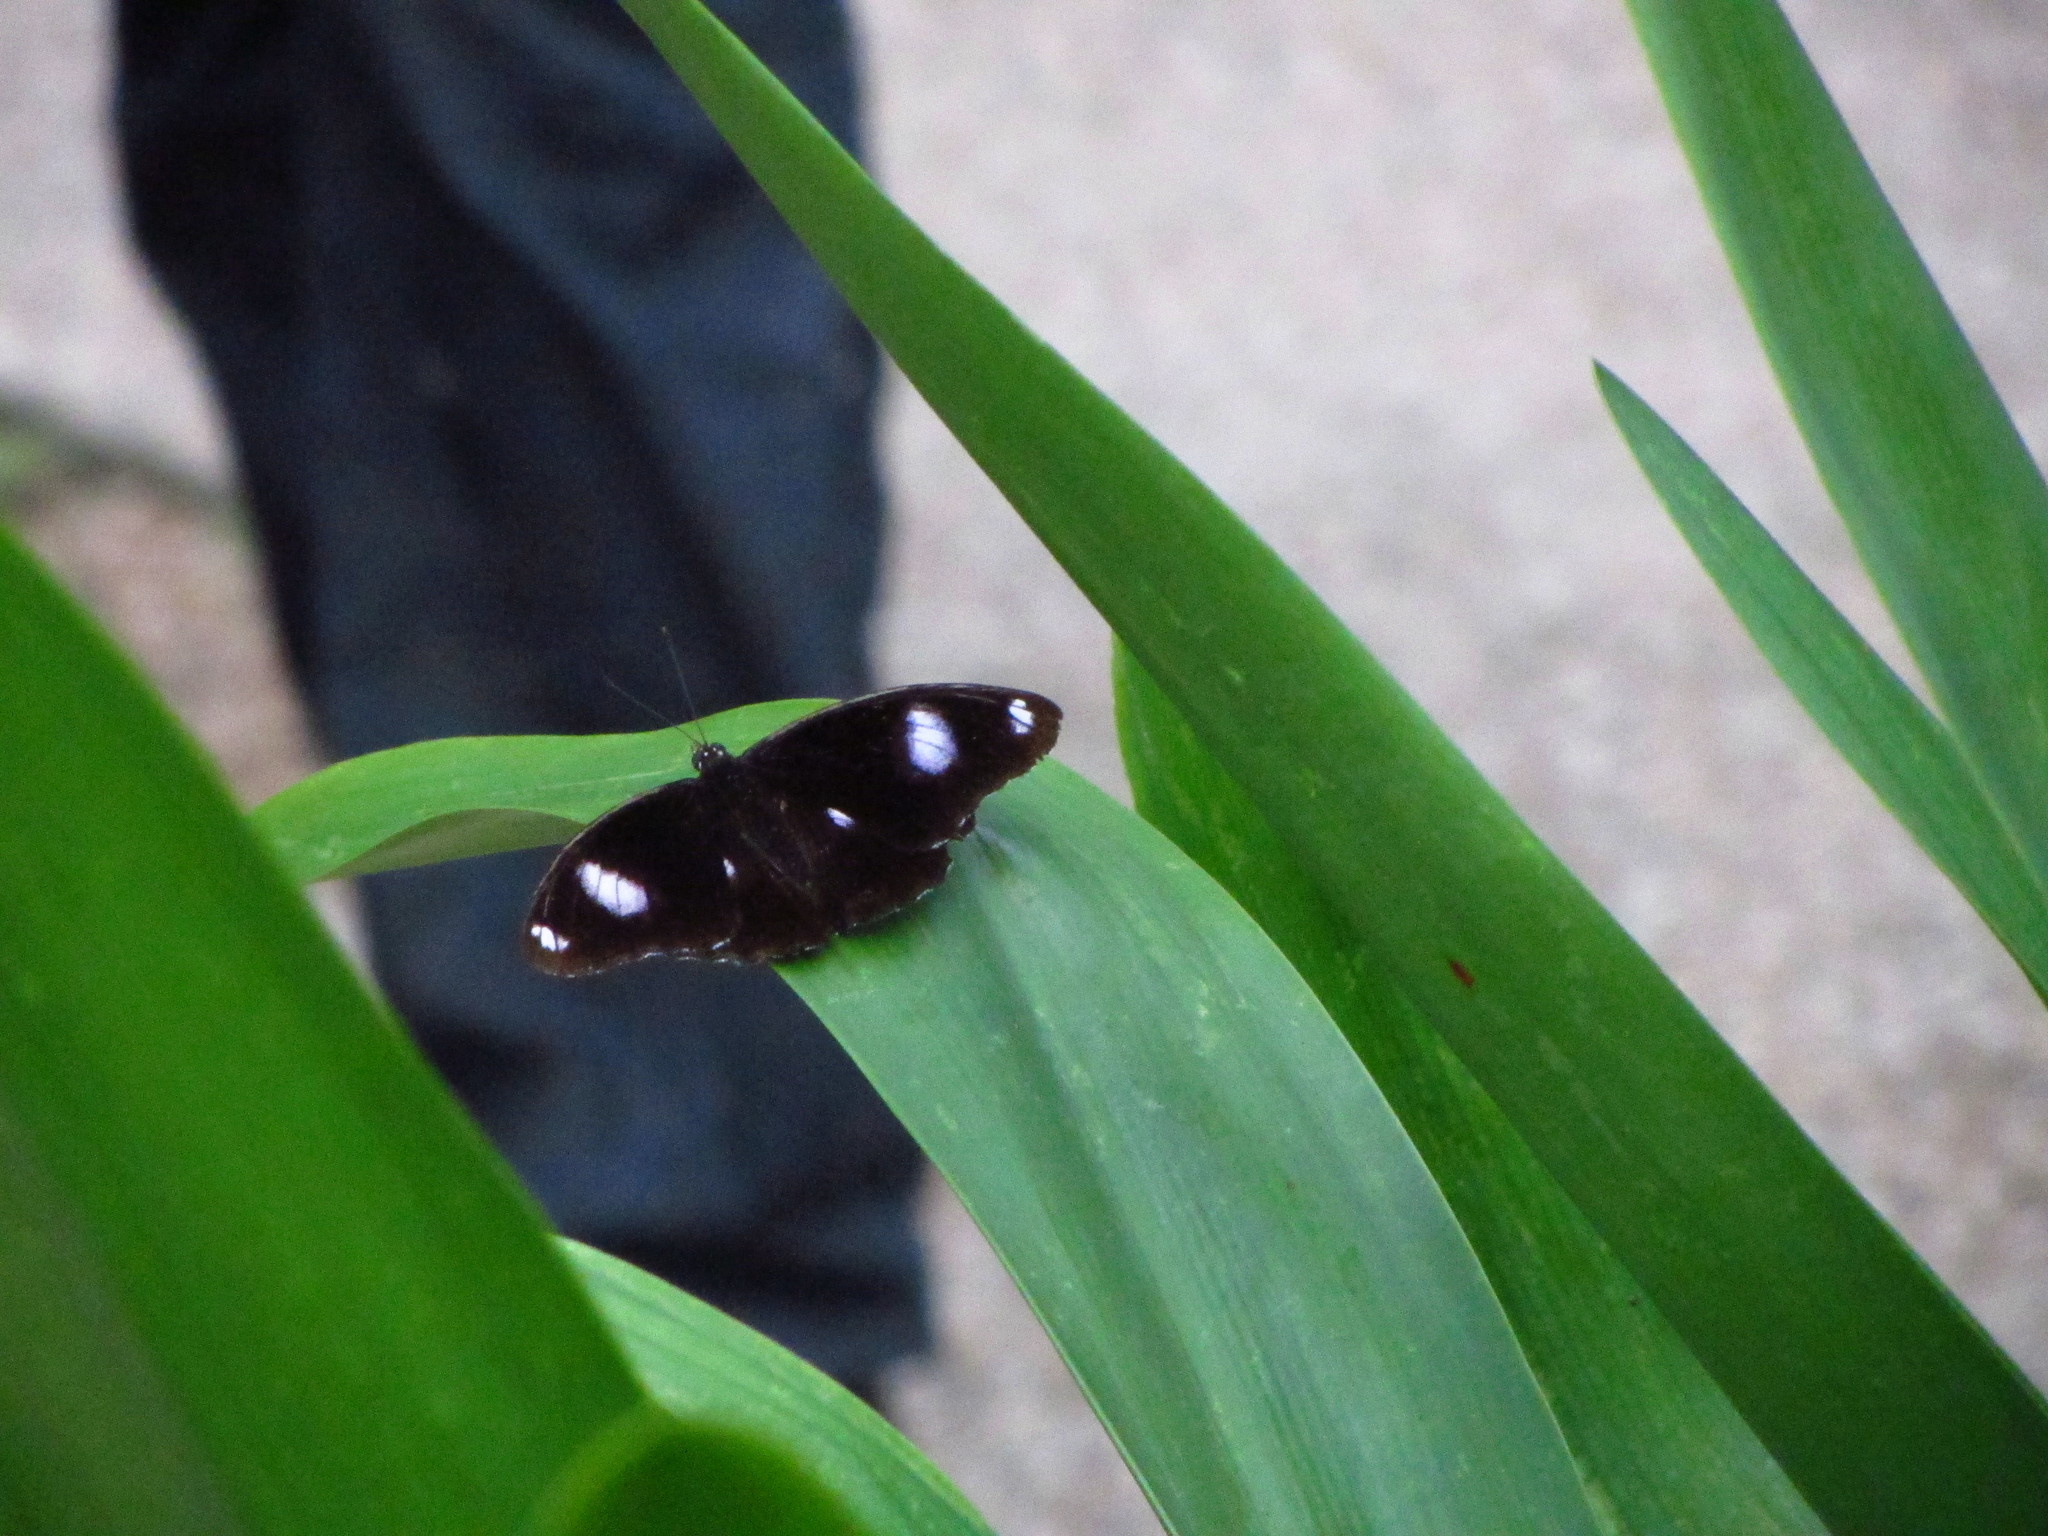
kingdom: Animalia
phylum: Arthropoda
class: Insecta
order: Lepidoptera
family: Nymphalidae
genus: Hypolimnas
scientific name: Hypolimnas bolina
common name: Great eggfly
